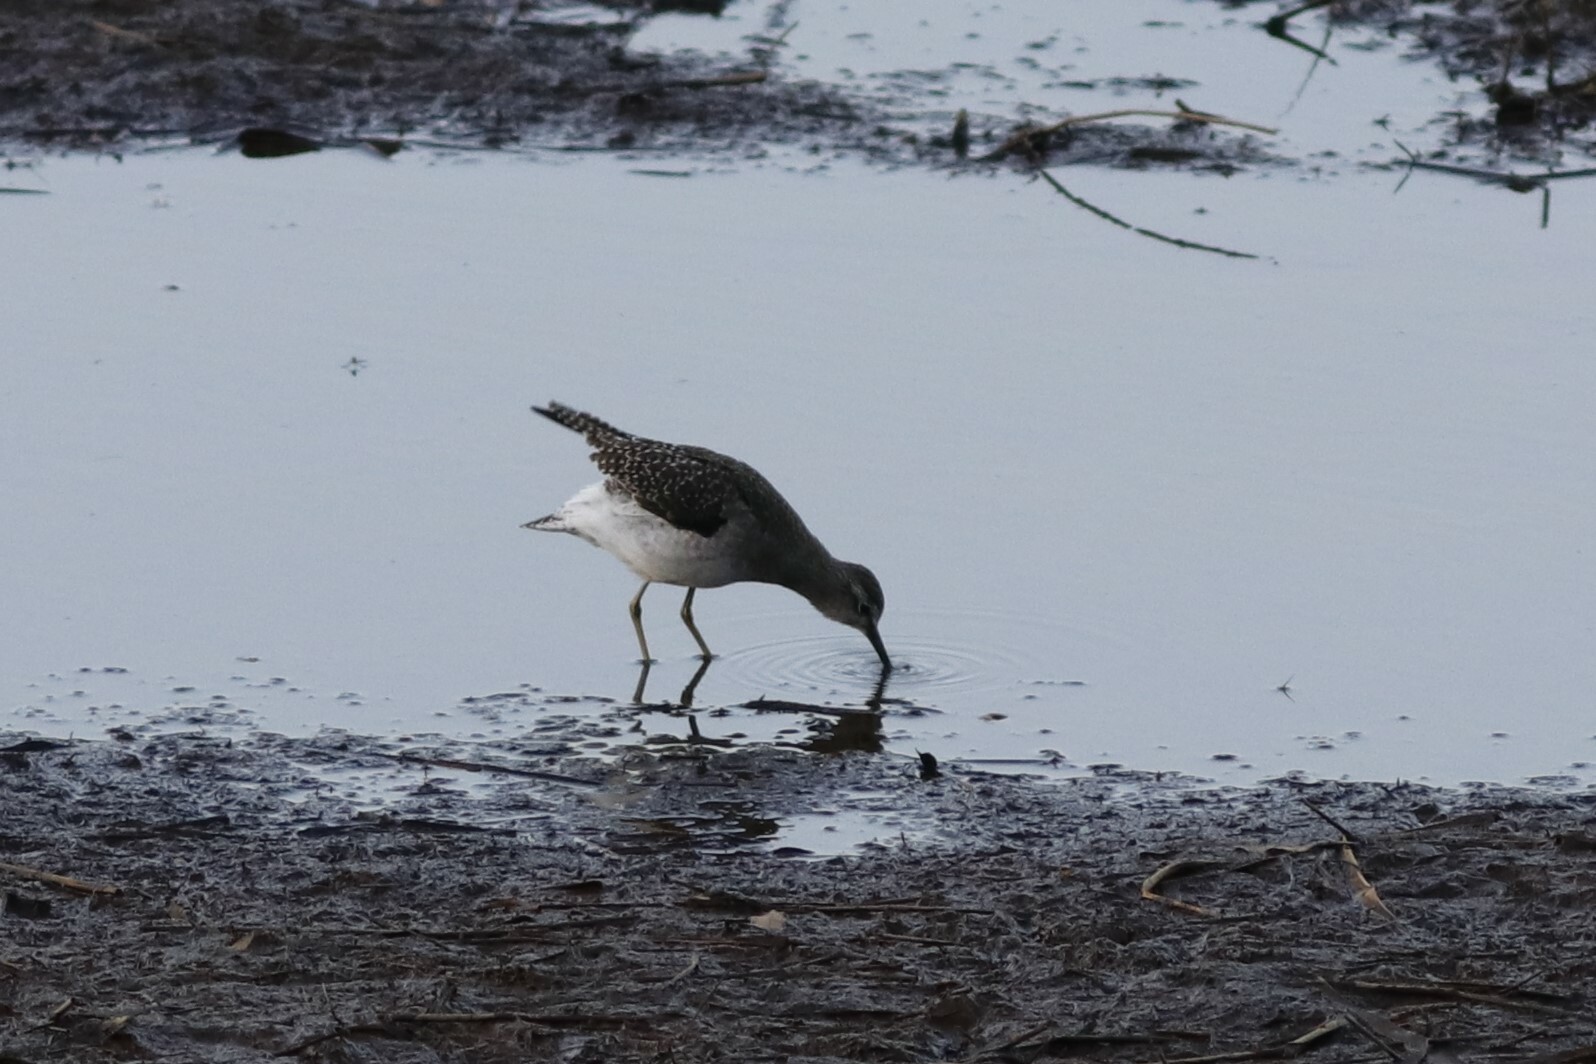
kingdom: Animalia
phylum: Chordata
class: Aves
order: Charadriiformes
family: Scolopacidae
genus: Tringa
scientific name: Tringa glareola
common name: Wood sandpiper
